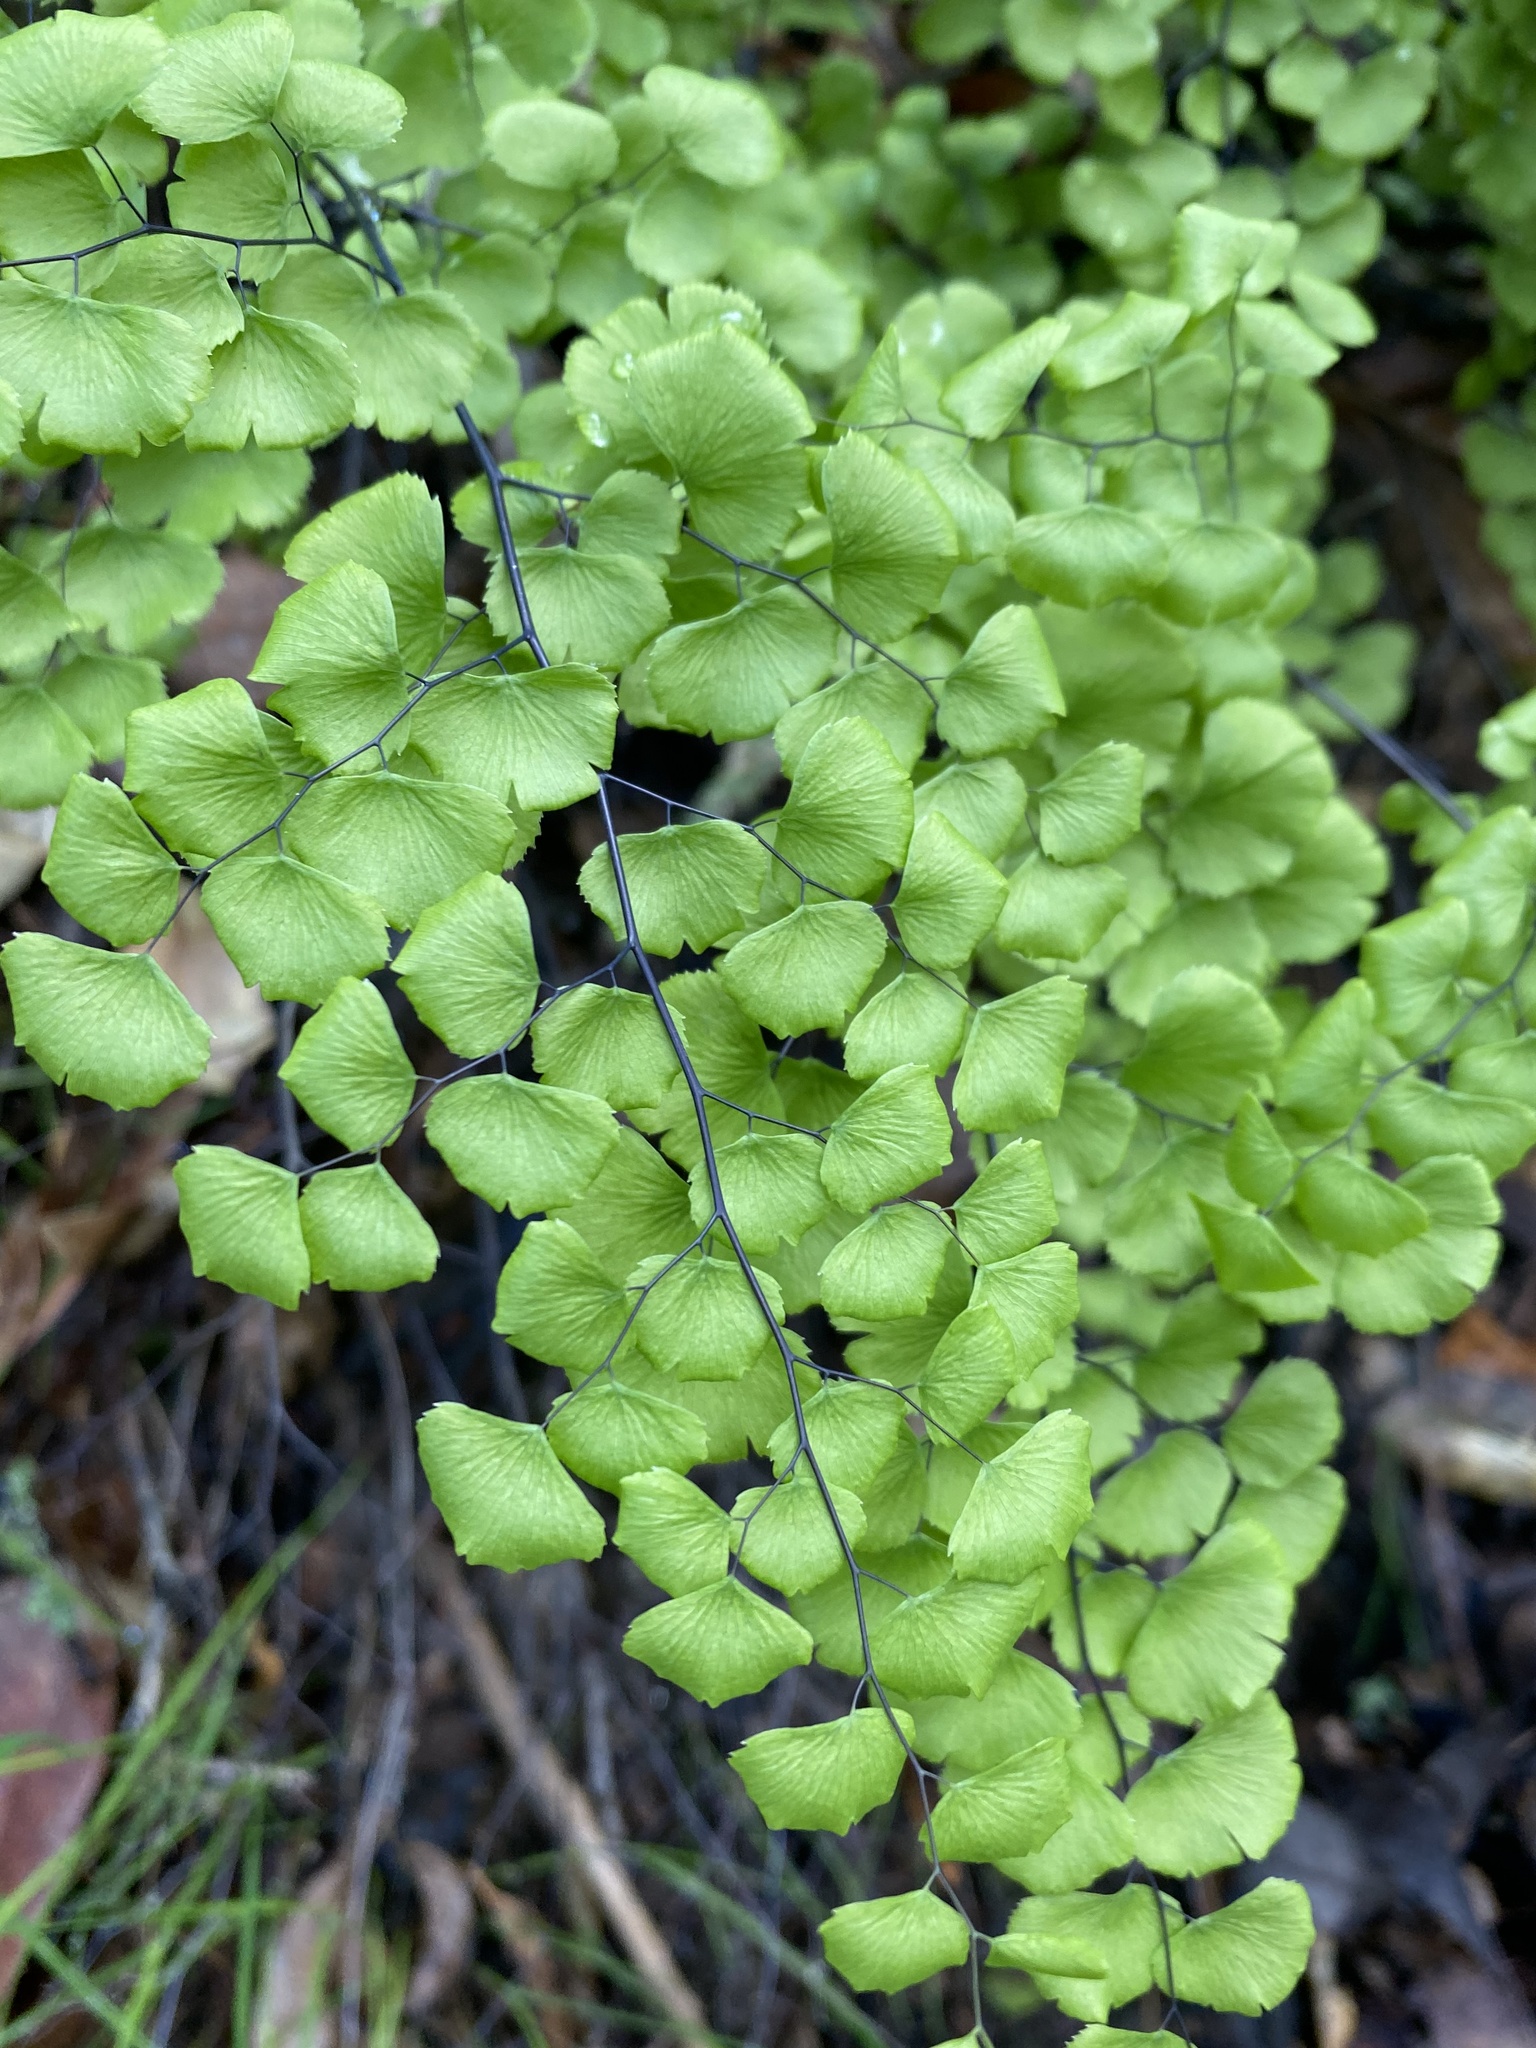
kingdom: Plantae
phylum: Tracheophyta
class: Polypodiopsida
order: Polypodiales
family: Pteridaceae
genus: Adiantum
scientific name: Adiantum jordanii
